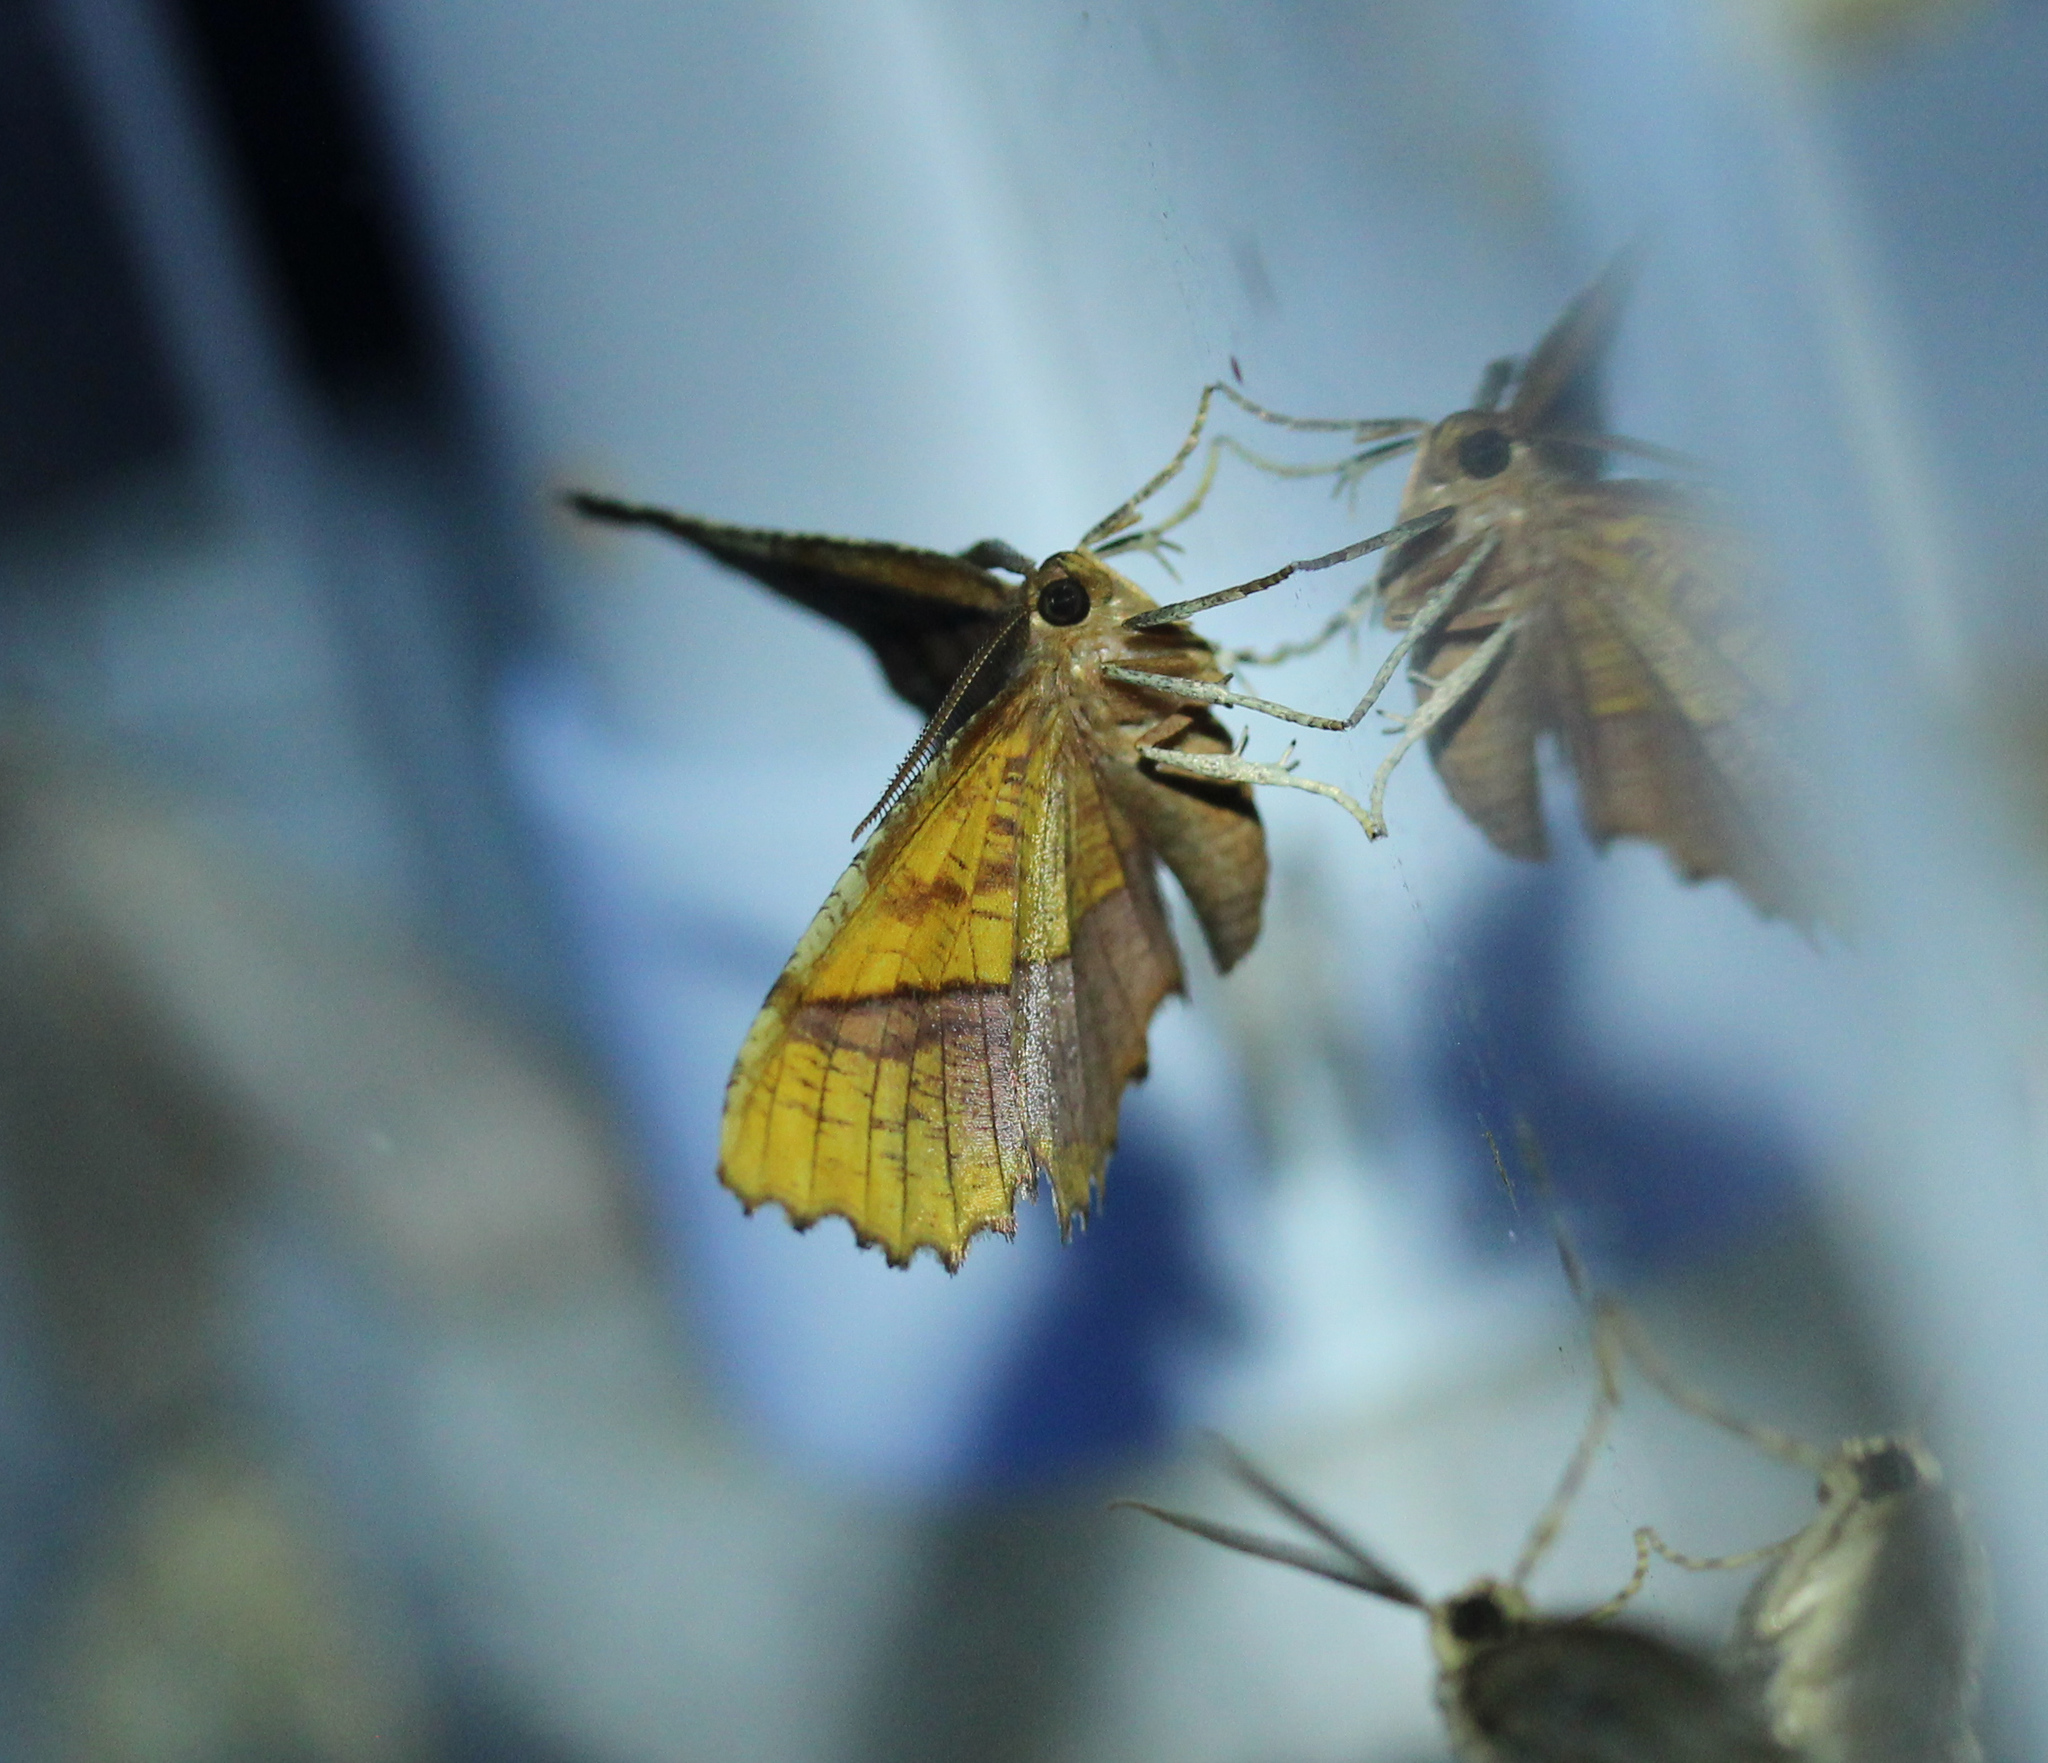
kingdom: Animalia
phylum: Arthropoda
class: Insecta
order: Lepidoptera
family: Geometridae
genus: Cepphis
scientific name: Cepphis armataria
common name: Scallop moth
